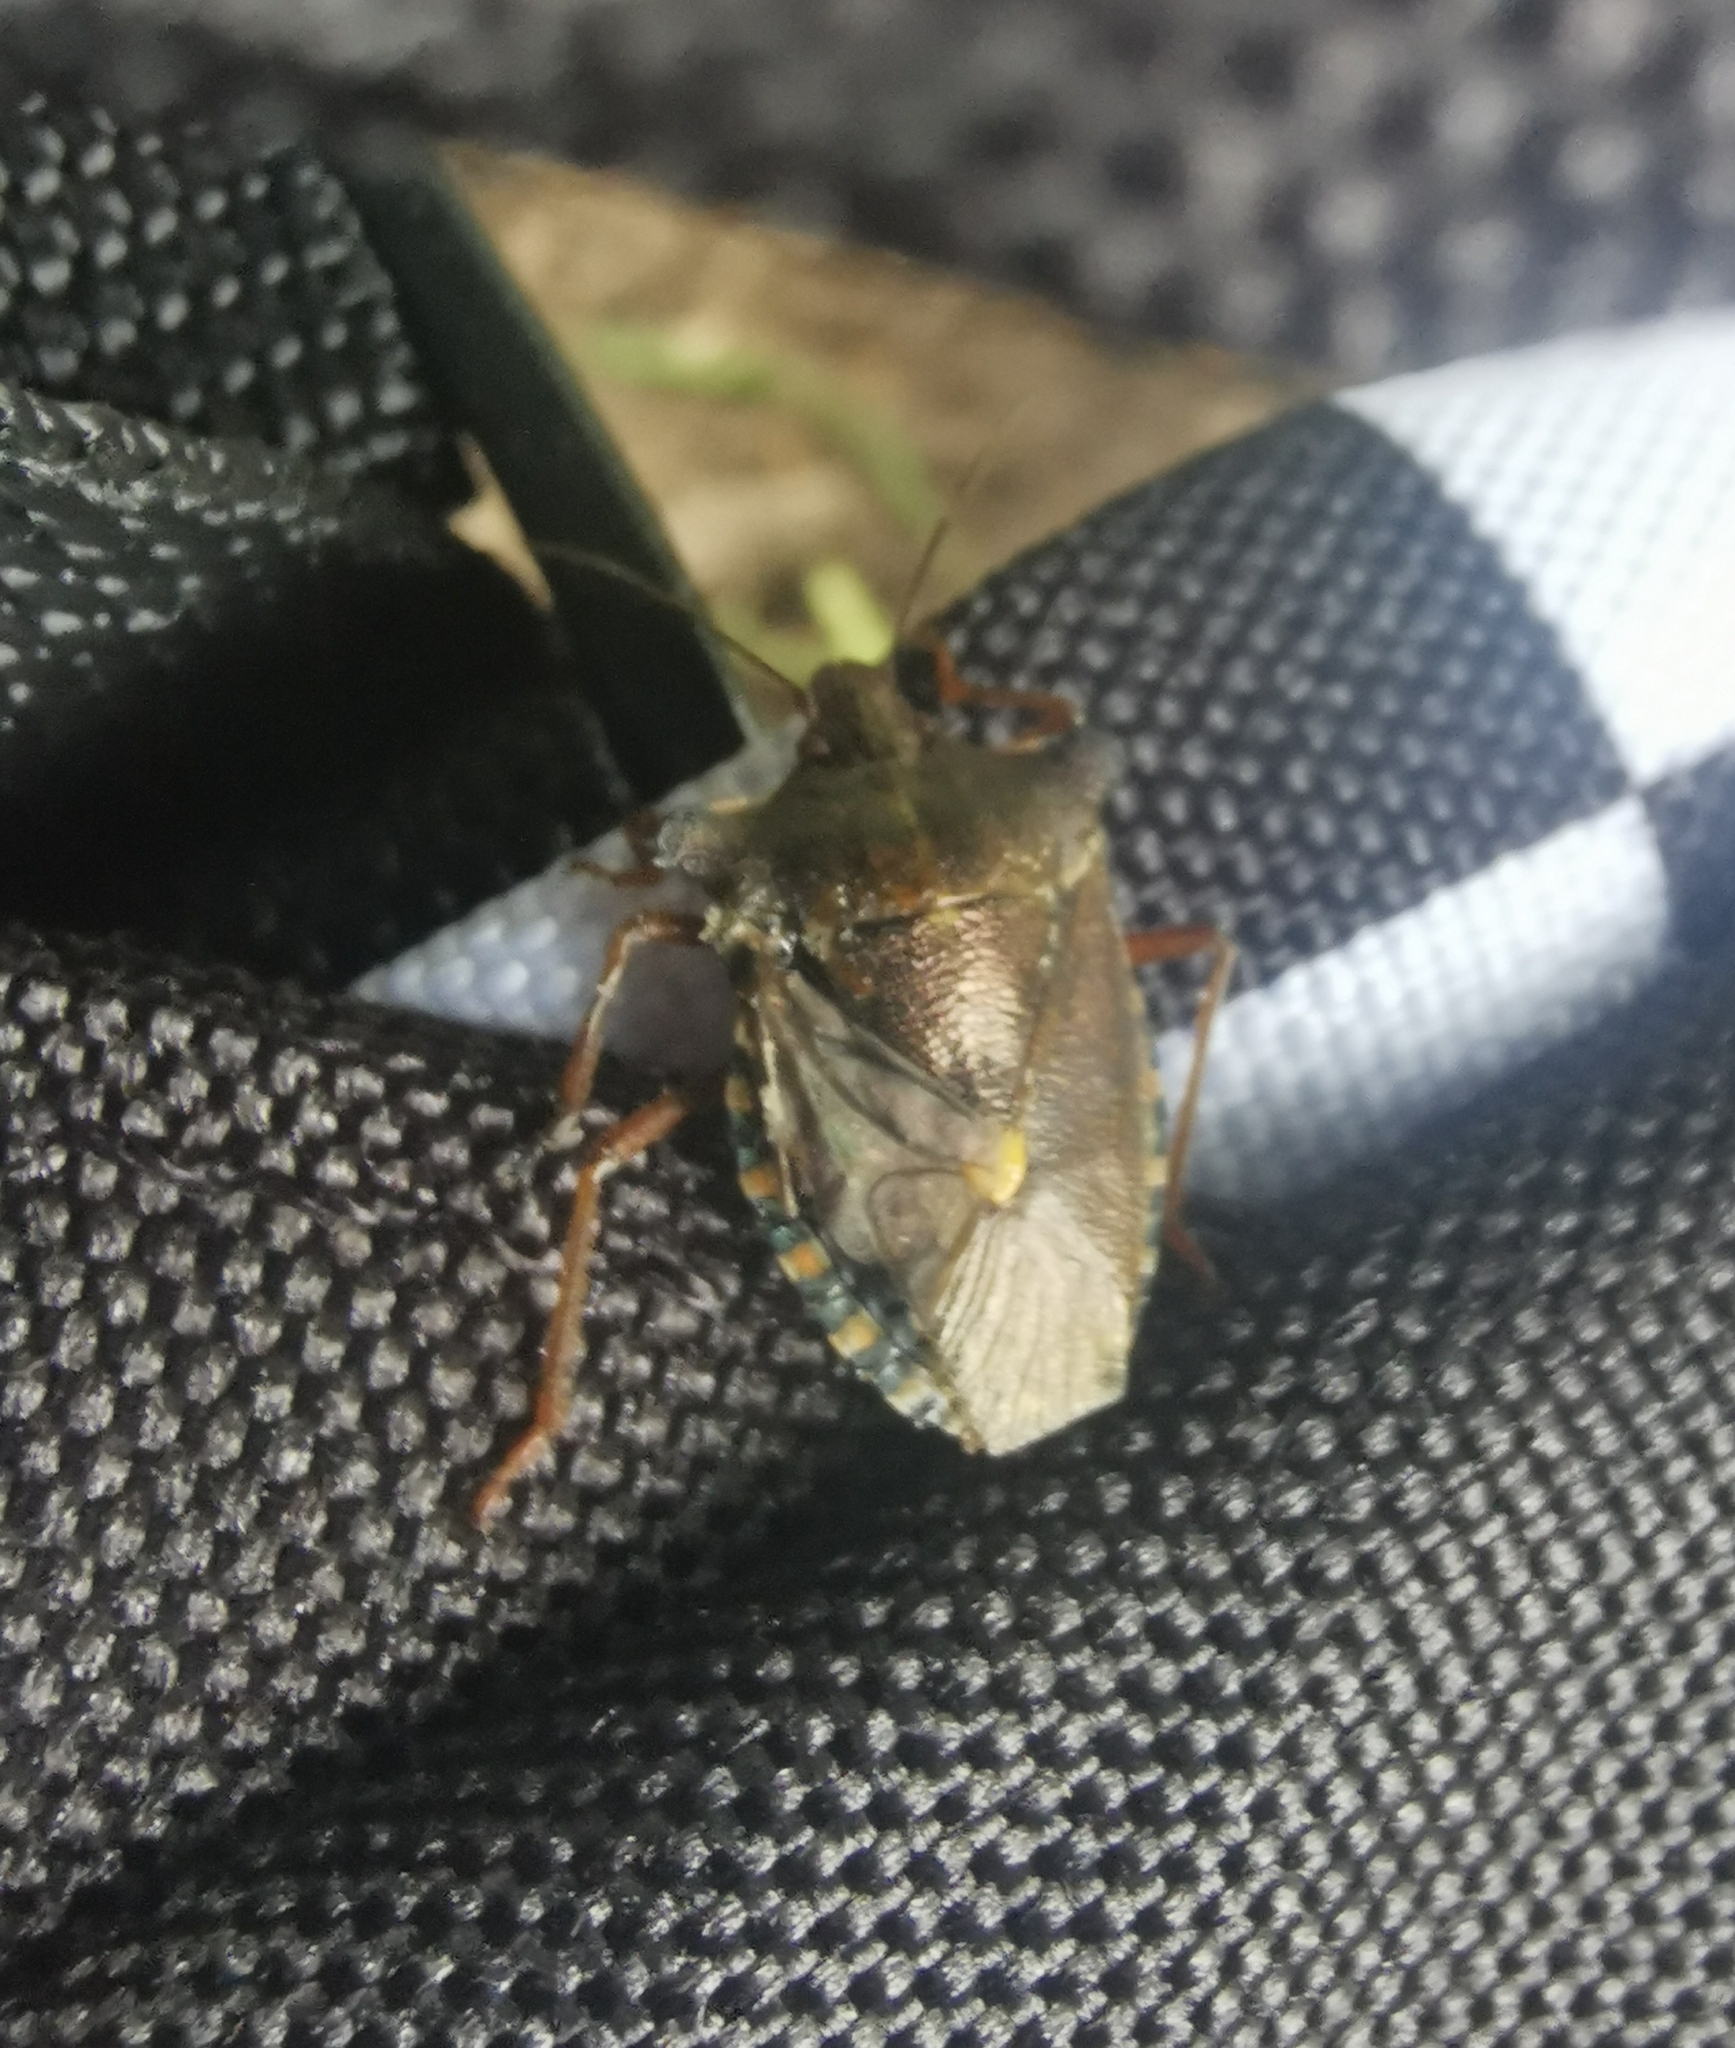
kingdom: Animalia
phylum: Arthropoda
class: Insecta
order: Hemiptera
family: Pentatomidae
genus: Pentatoma
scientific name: Pentatoma rufipes
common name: Forest bug
